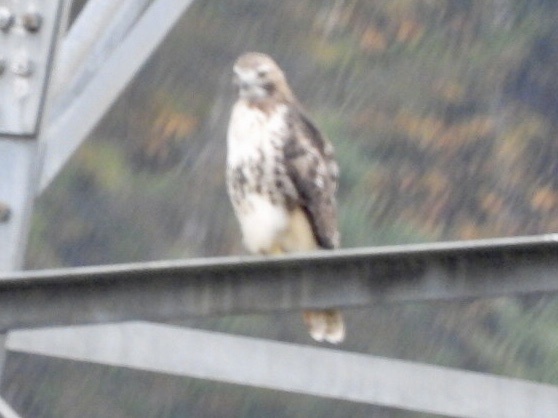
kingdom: Animalia
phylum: Chordata
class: Aves
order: Accipitriformes
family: Accipitridae
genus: Buteo
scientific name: Buteo jamaicensis
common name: Red-tailed hawk
